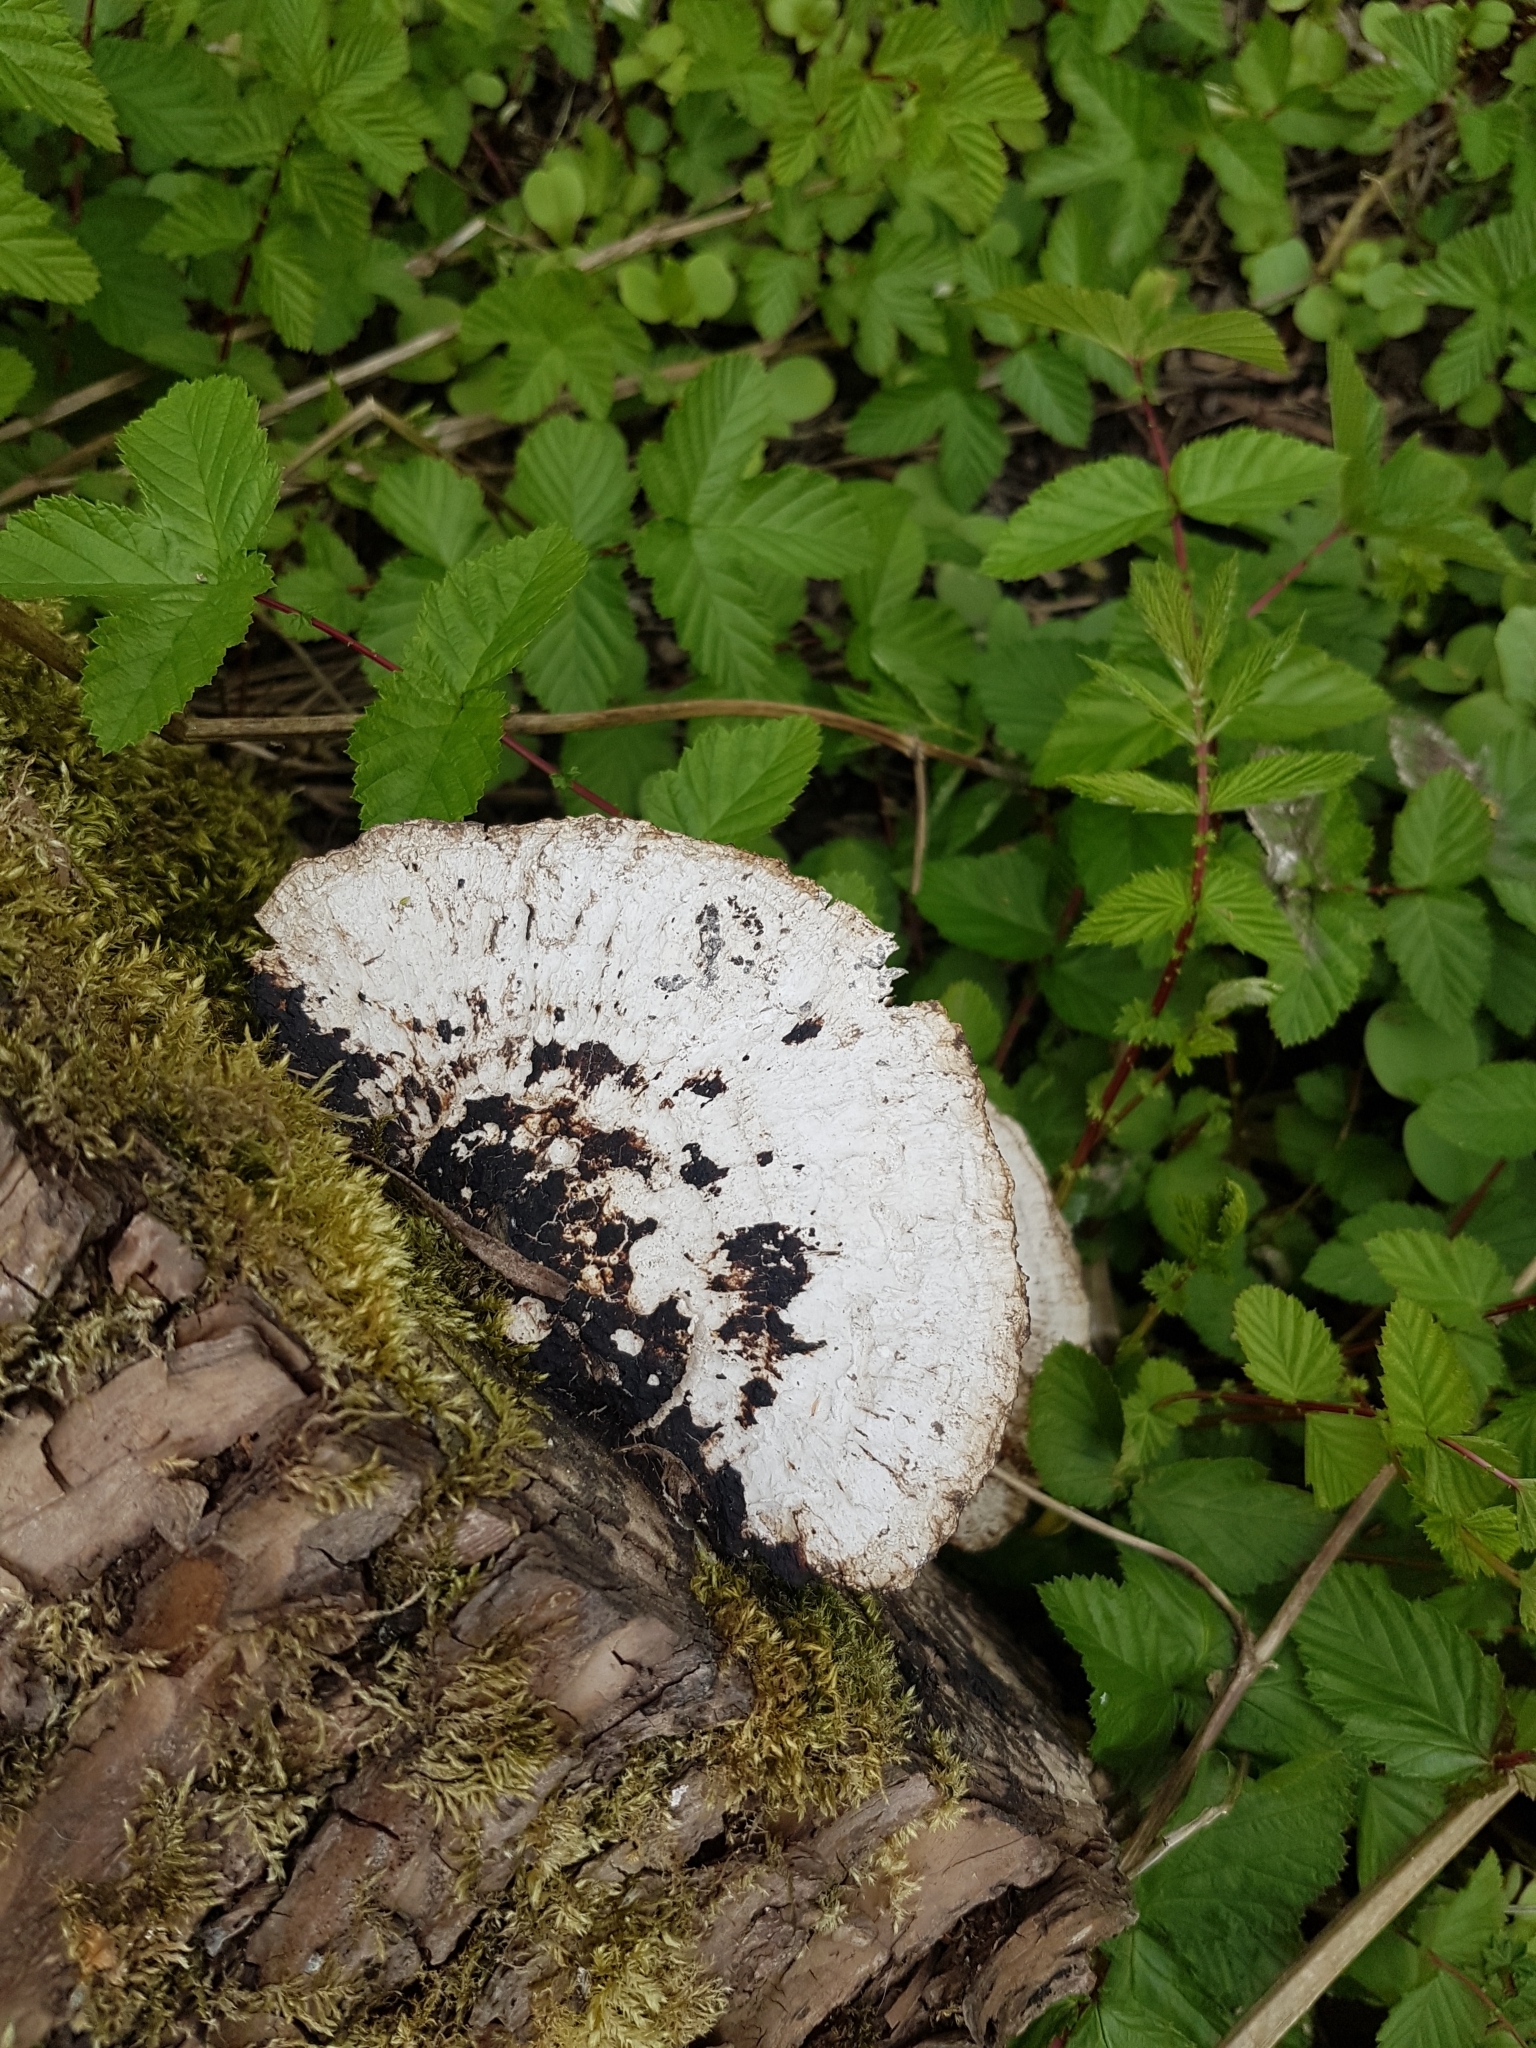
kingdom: Fungi
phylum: Basidiomycota
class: Agaricomycetes
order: Polyporales
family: Polyporaceae
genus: Daedaleopsis
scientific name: Daedaleopsis confragosa
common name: Blushing bracket
